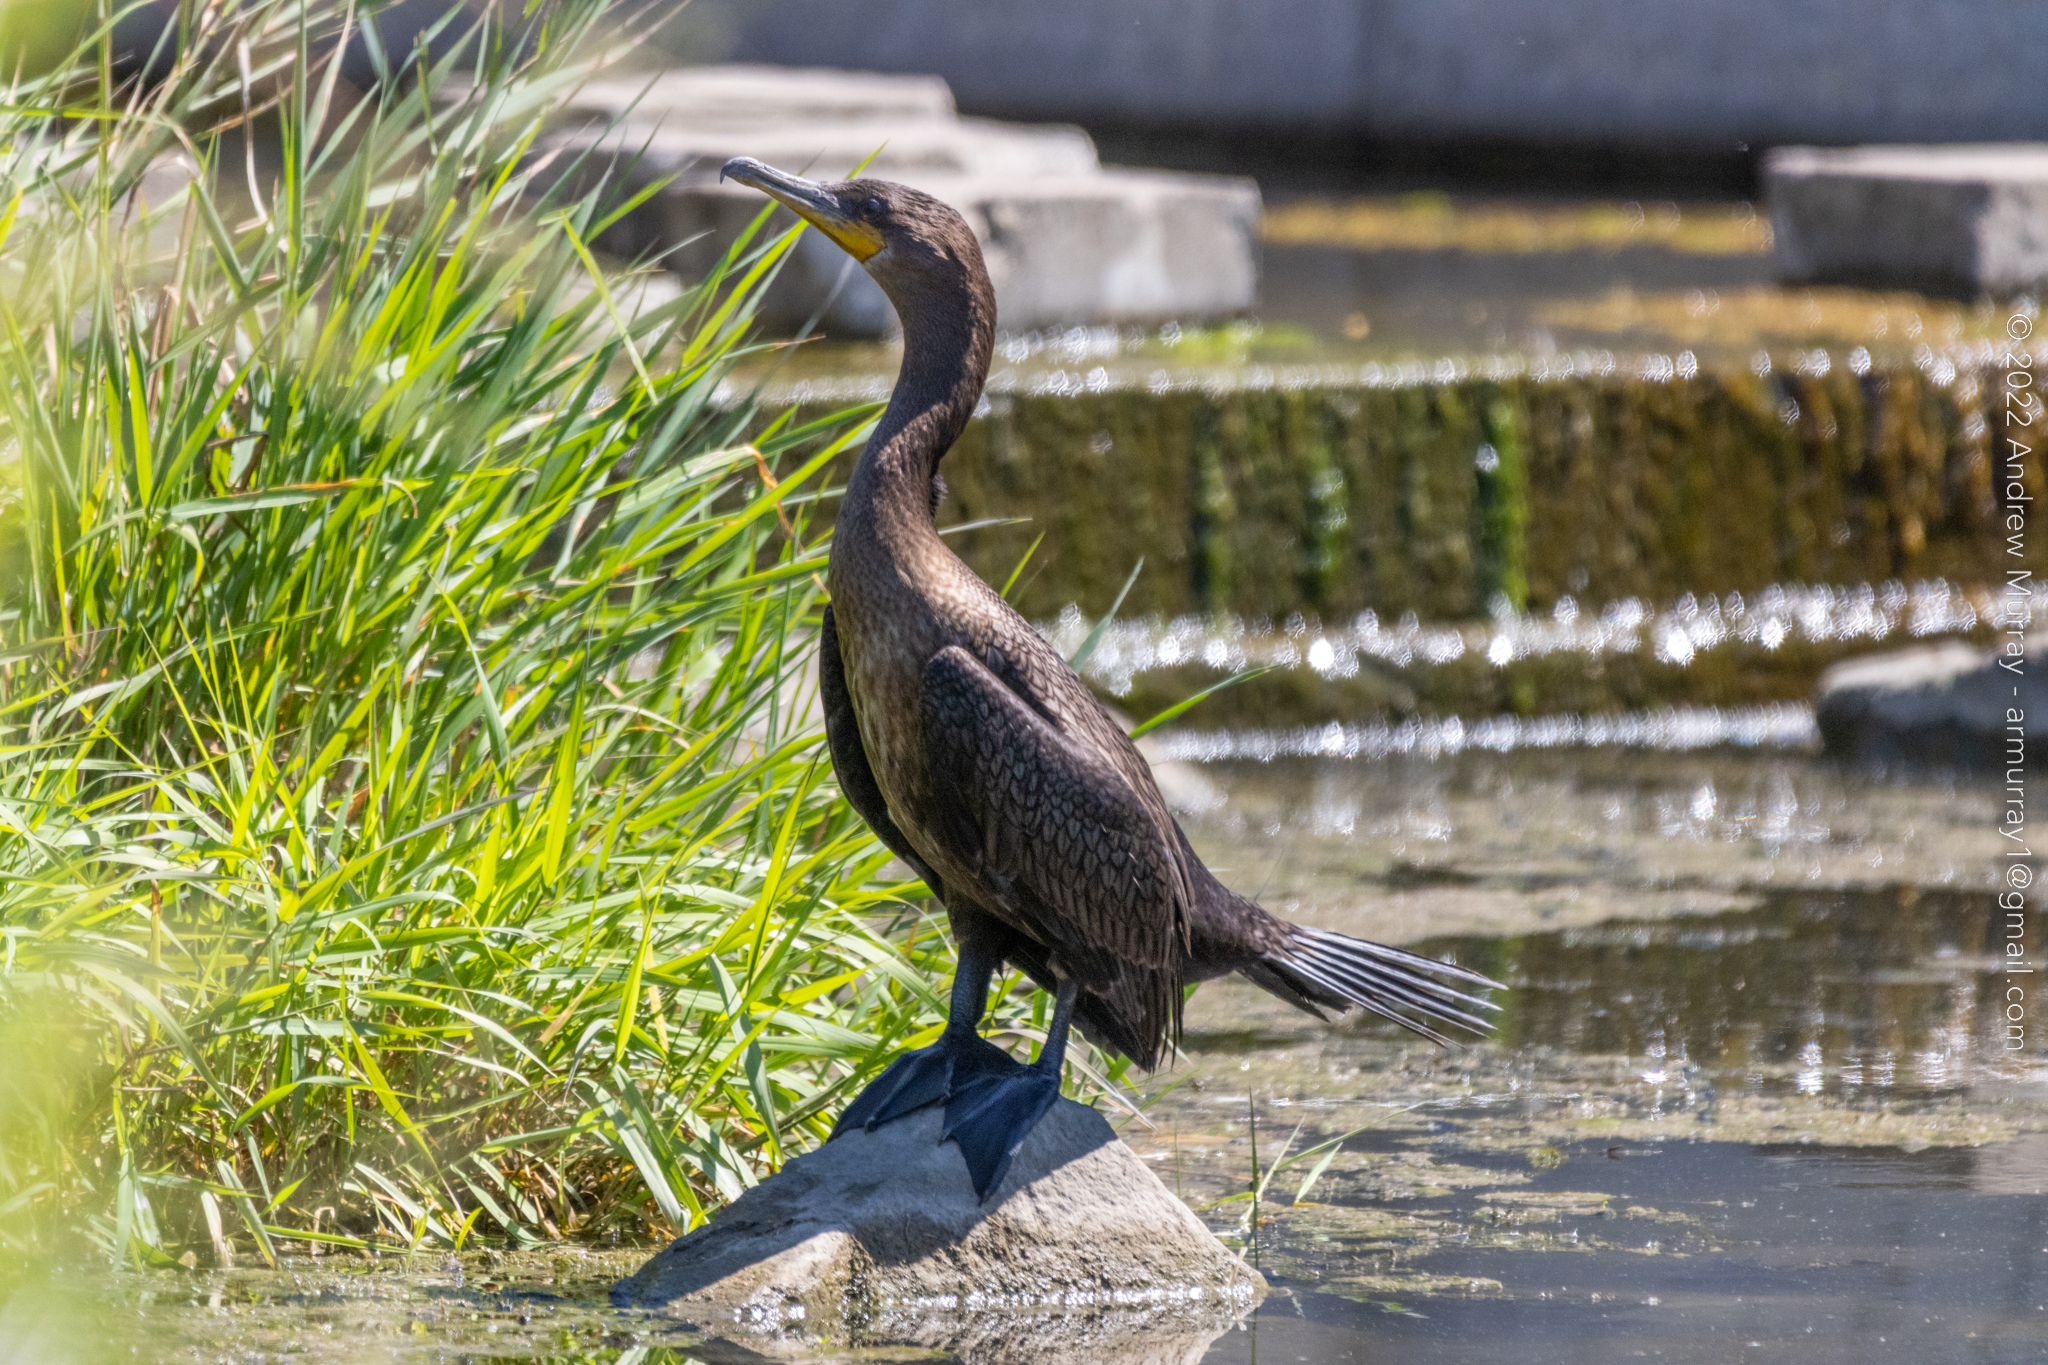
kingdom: Animalia
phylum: Chordata
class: Aves
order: Suliformes
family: Phalacrocoracidae
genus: Phalacrocorax
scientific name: Phalacrocorax auritus
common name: Double-crested cormorant
